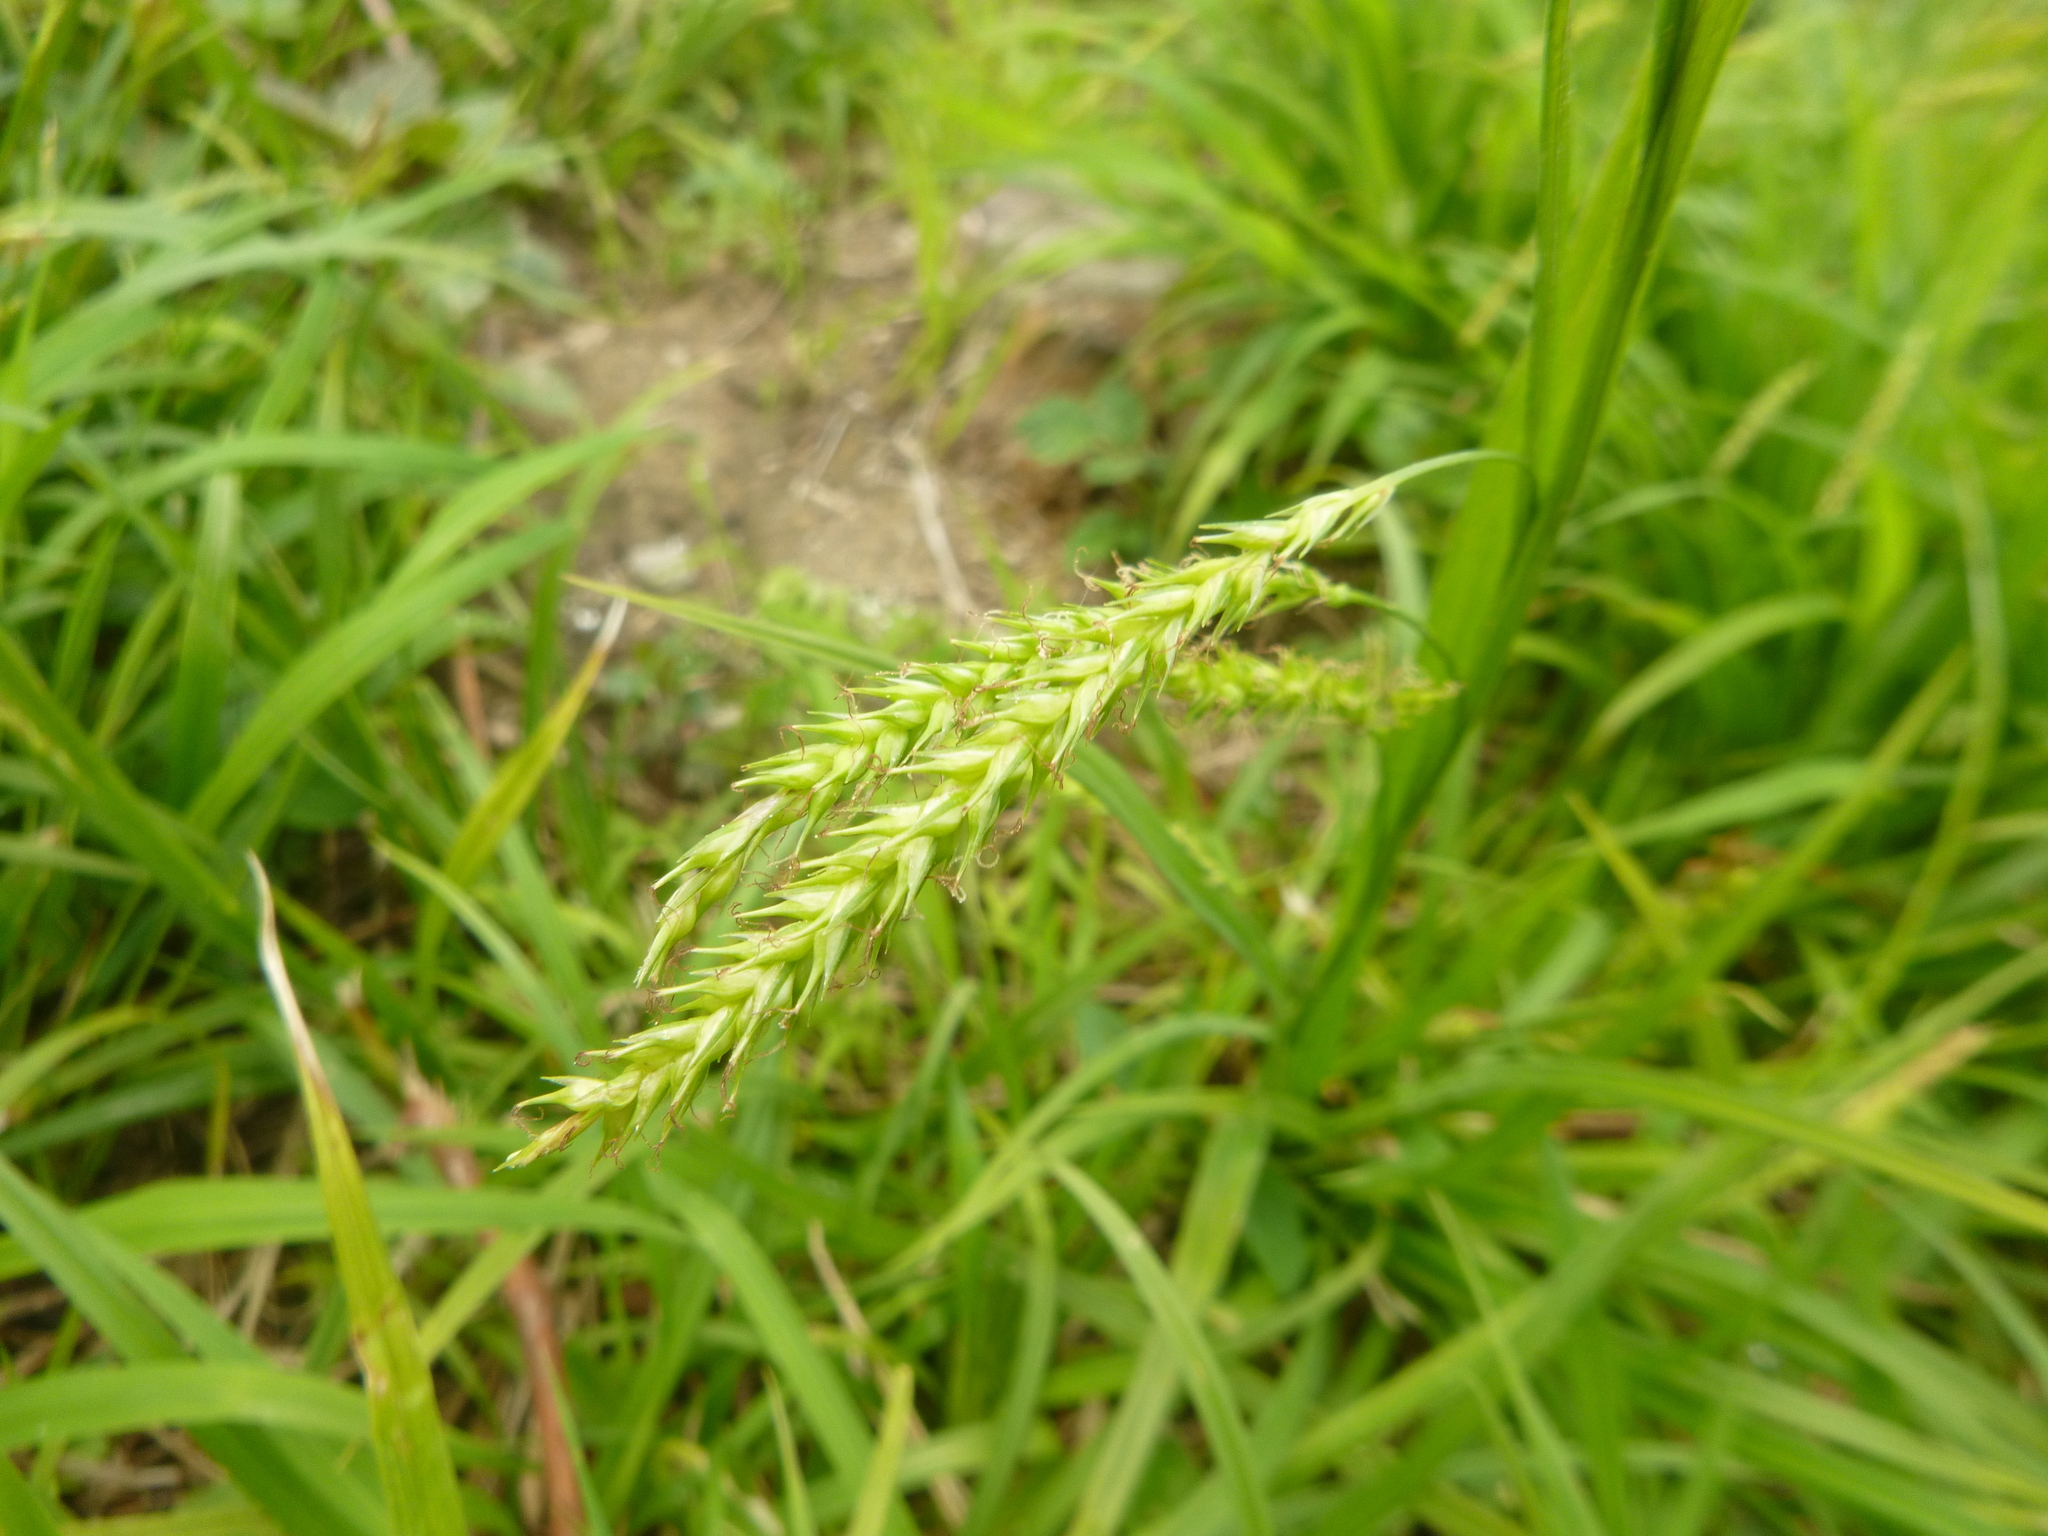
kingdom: Plantae
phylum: Tracheophyta
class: Liliopsida
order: Poales
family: Cyperaceae
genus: Carex
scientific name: Carex sylvatica
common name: Wood-sedge
